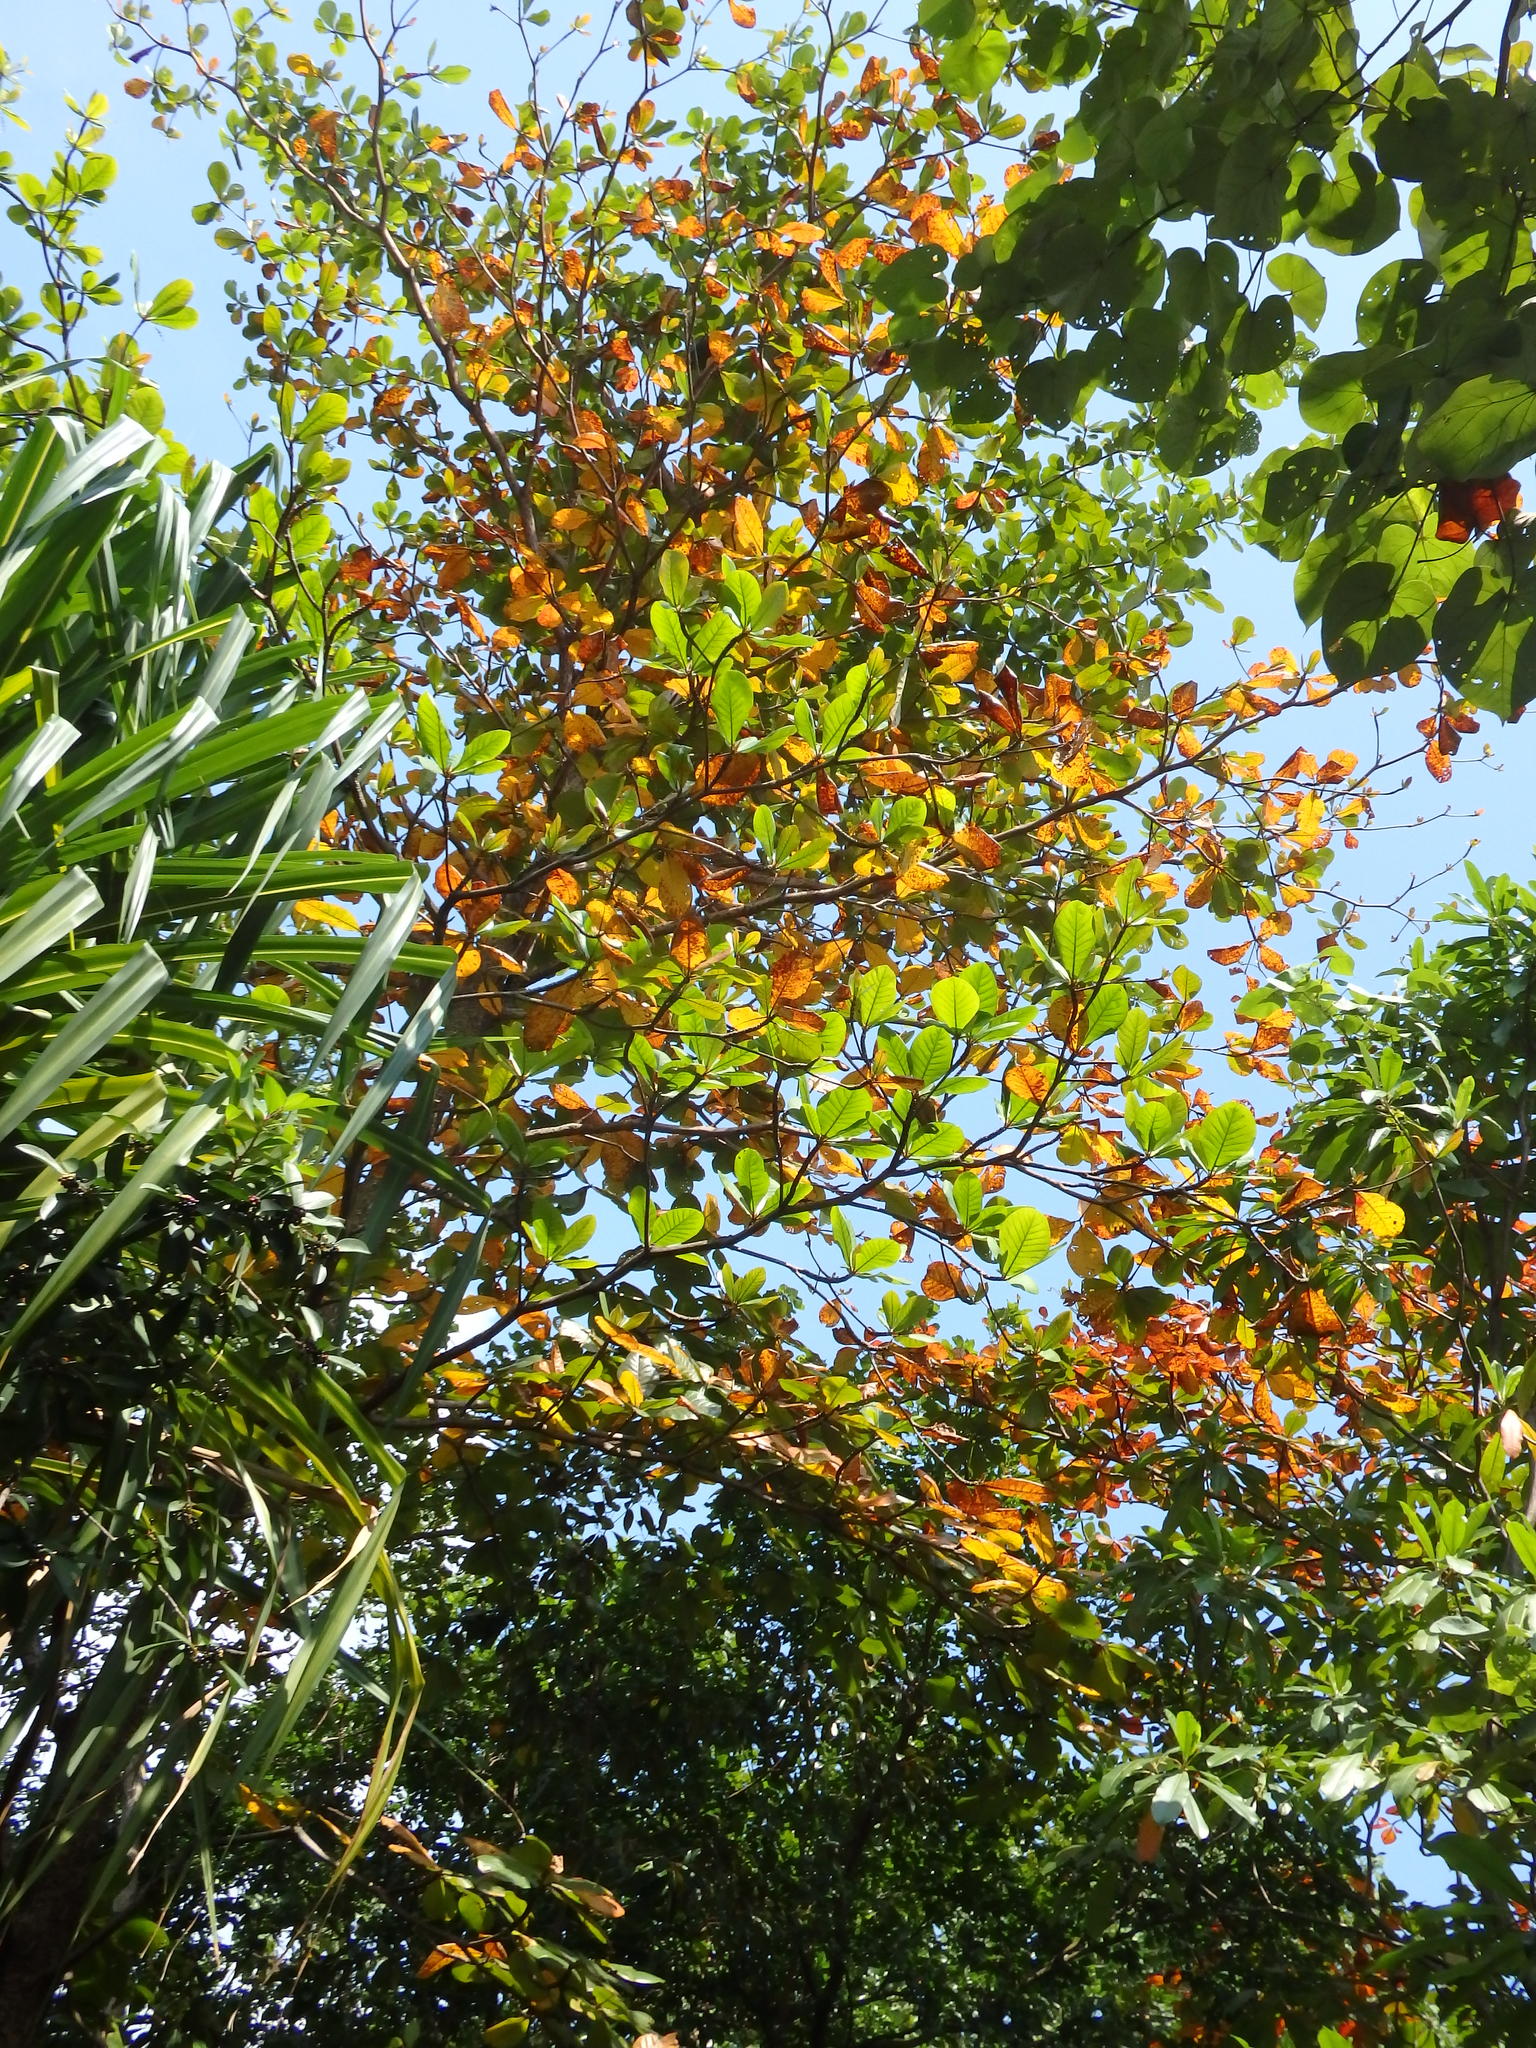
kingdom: Plantae
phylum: Tracheophyta
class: Magnoliopsida
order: Myrtales
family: Combretaceae
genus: Terminalia
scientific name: Terminalia catappa
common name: Tropical almond
